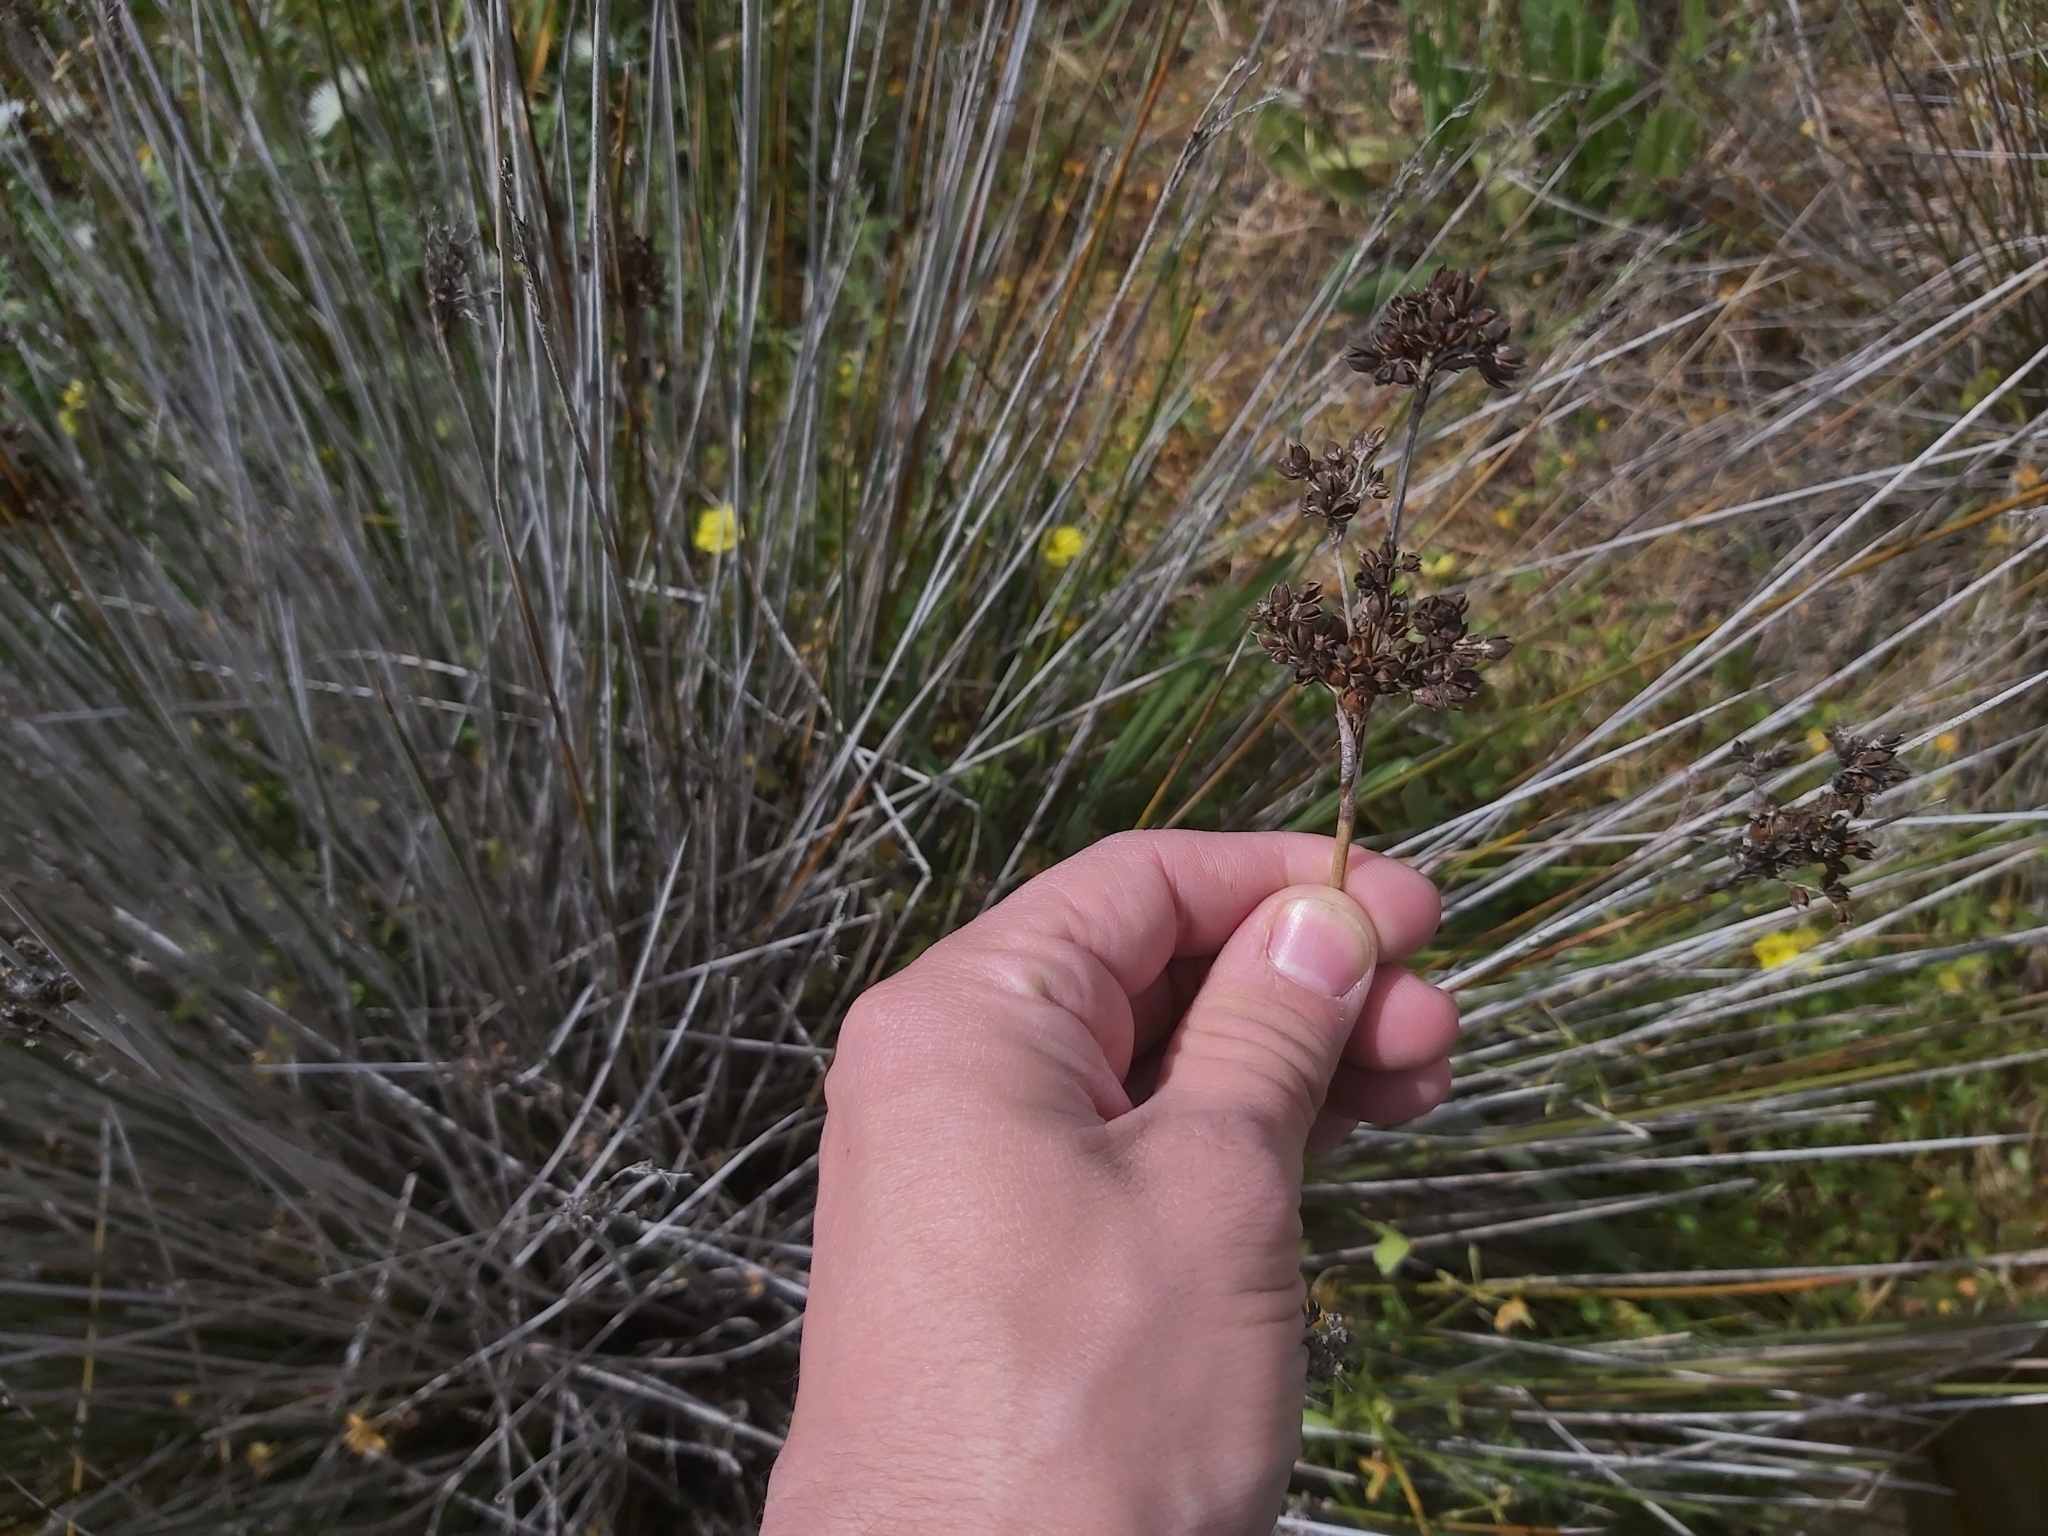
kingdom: Plantae
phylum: Tracheophyta
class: Liliopsida
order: Poales
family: Juncaceae
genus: Juncus
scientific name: Juncus acutus
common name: Sharp rush
